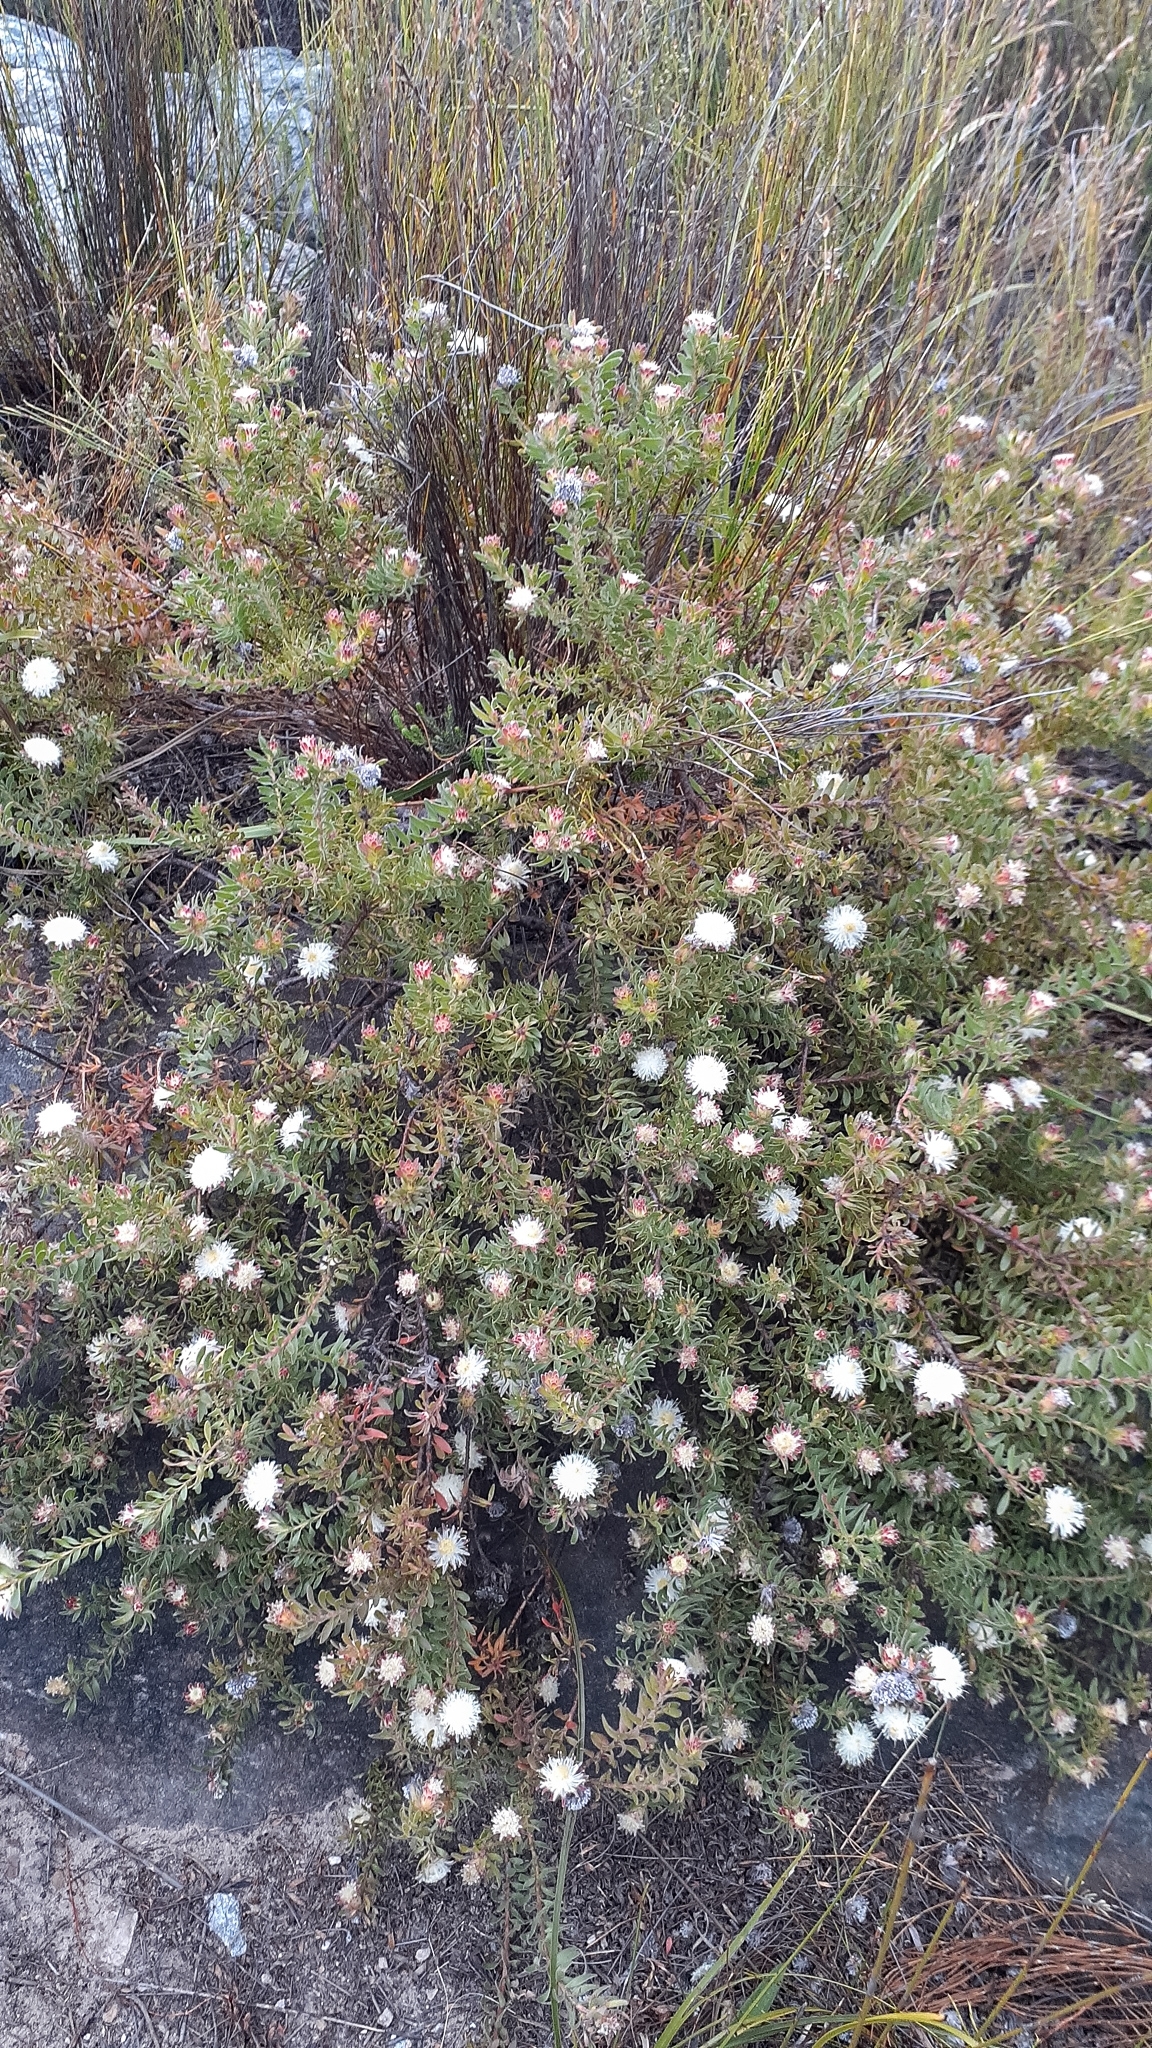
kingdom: Plantae
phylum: Tracheophyta
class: Magnoliopsida
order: Proteales
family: Proteaceae
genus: Diastella
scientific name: Diastella fraterna
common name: Palmiet silkypuff
